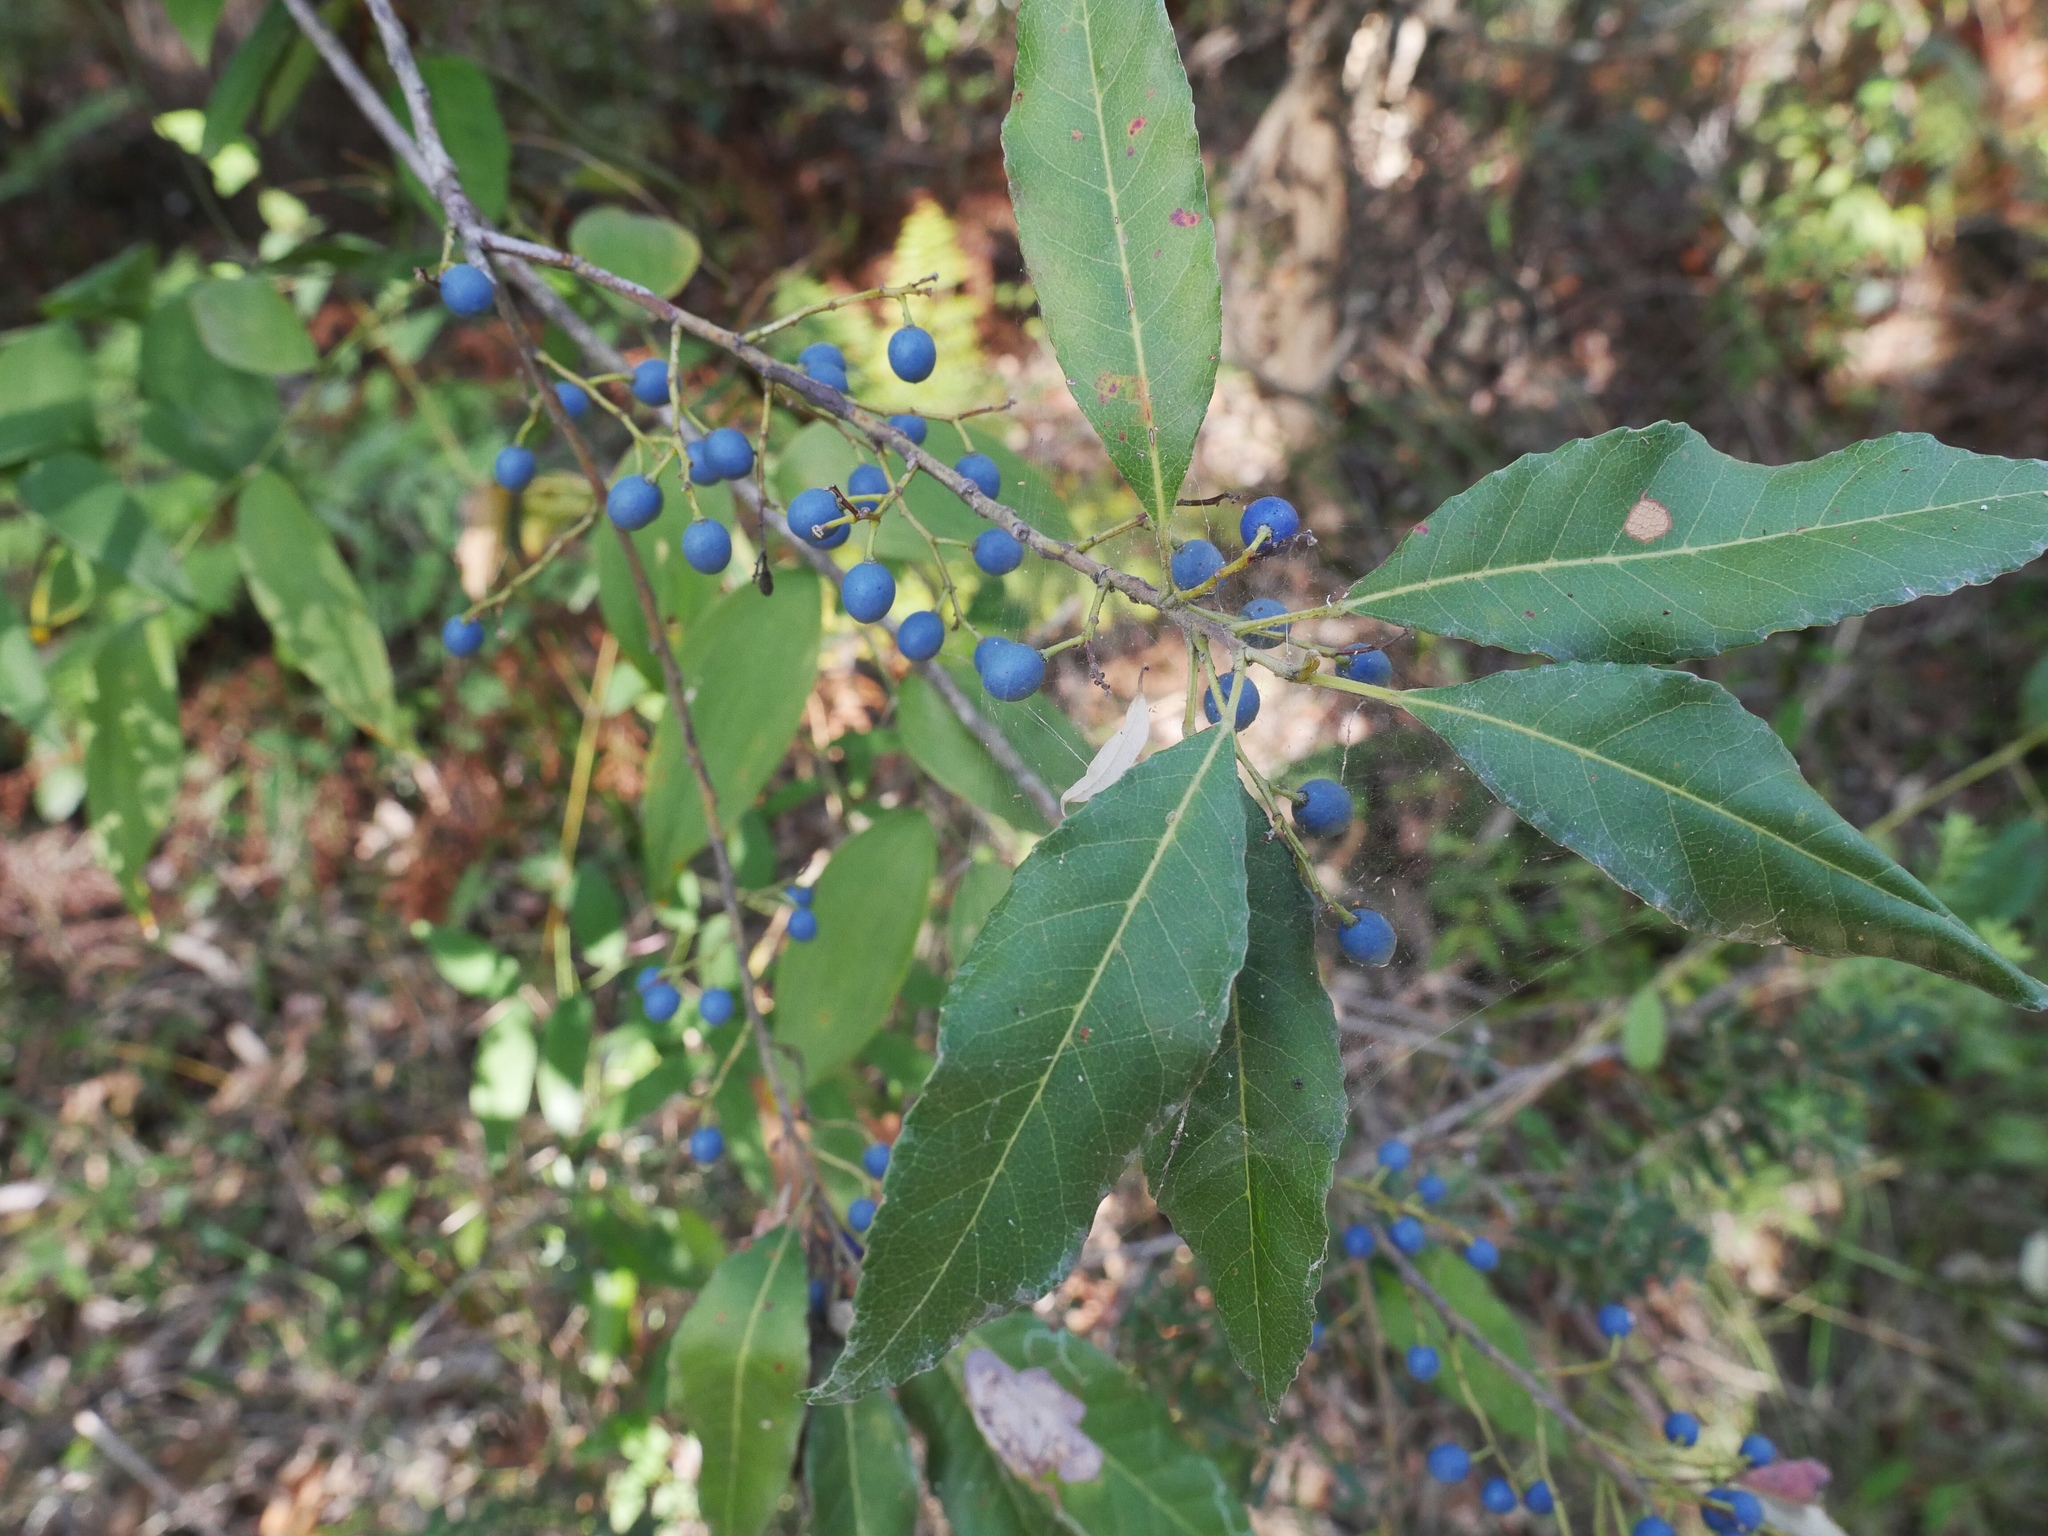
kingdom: Plantae
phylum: Tracheophyta
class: Magnoliopsida
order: Oxalidales
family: Elaeocarpaceae
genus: Elaeocarpus
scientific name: Elaeocarpus reticulatus
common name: Ash quandong
